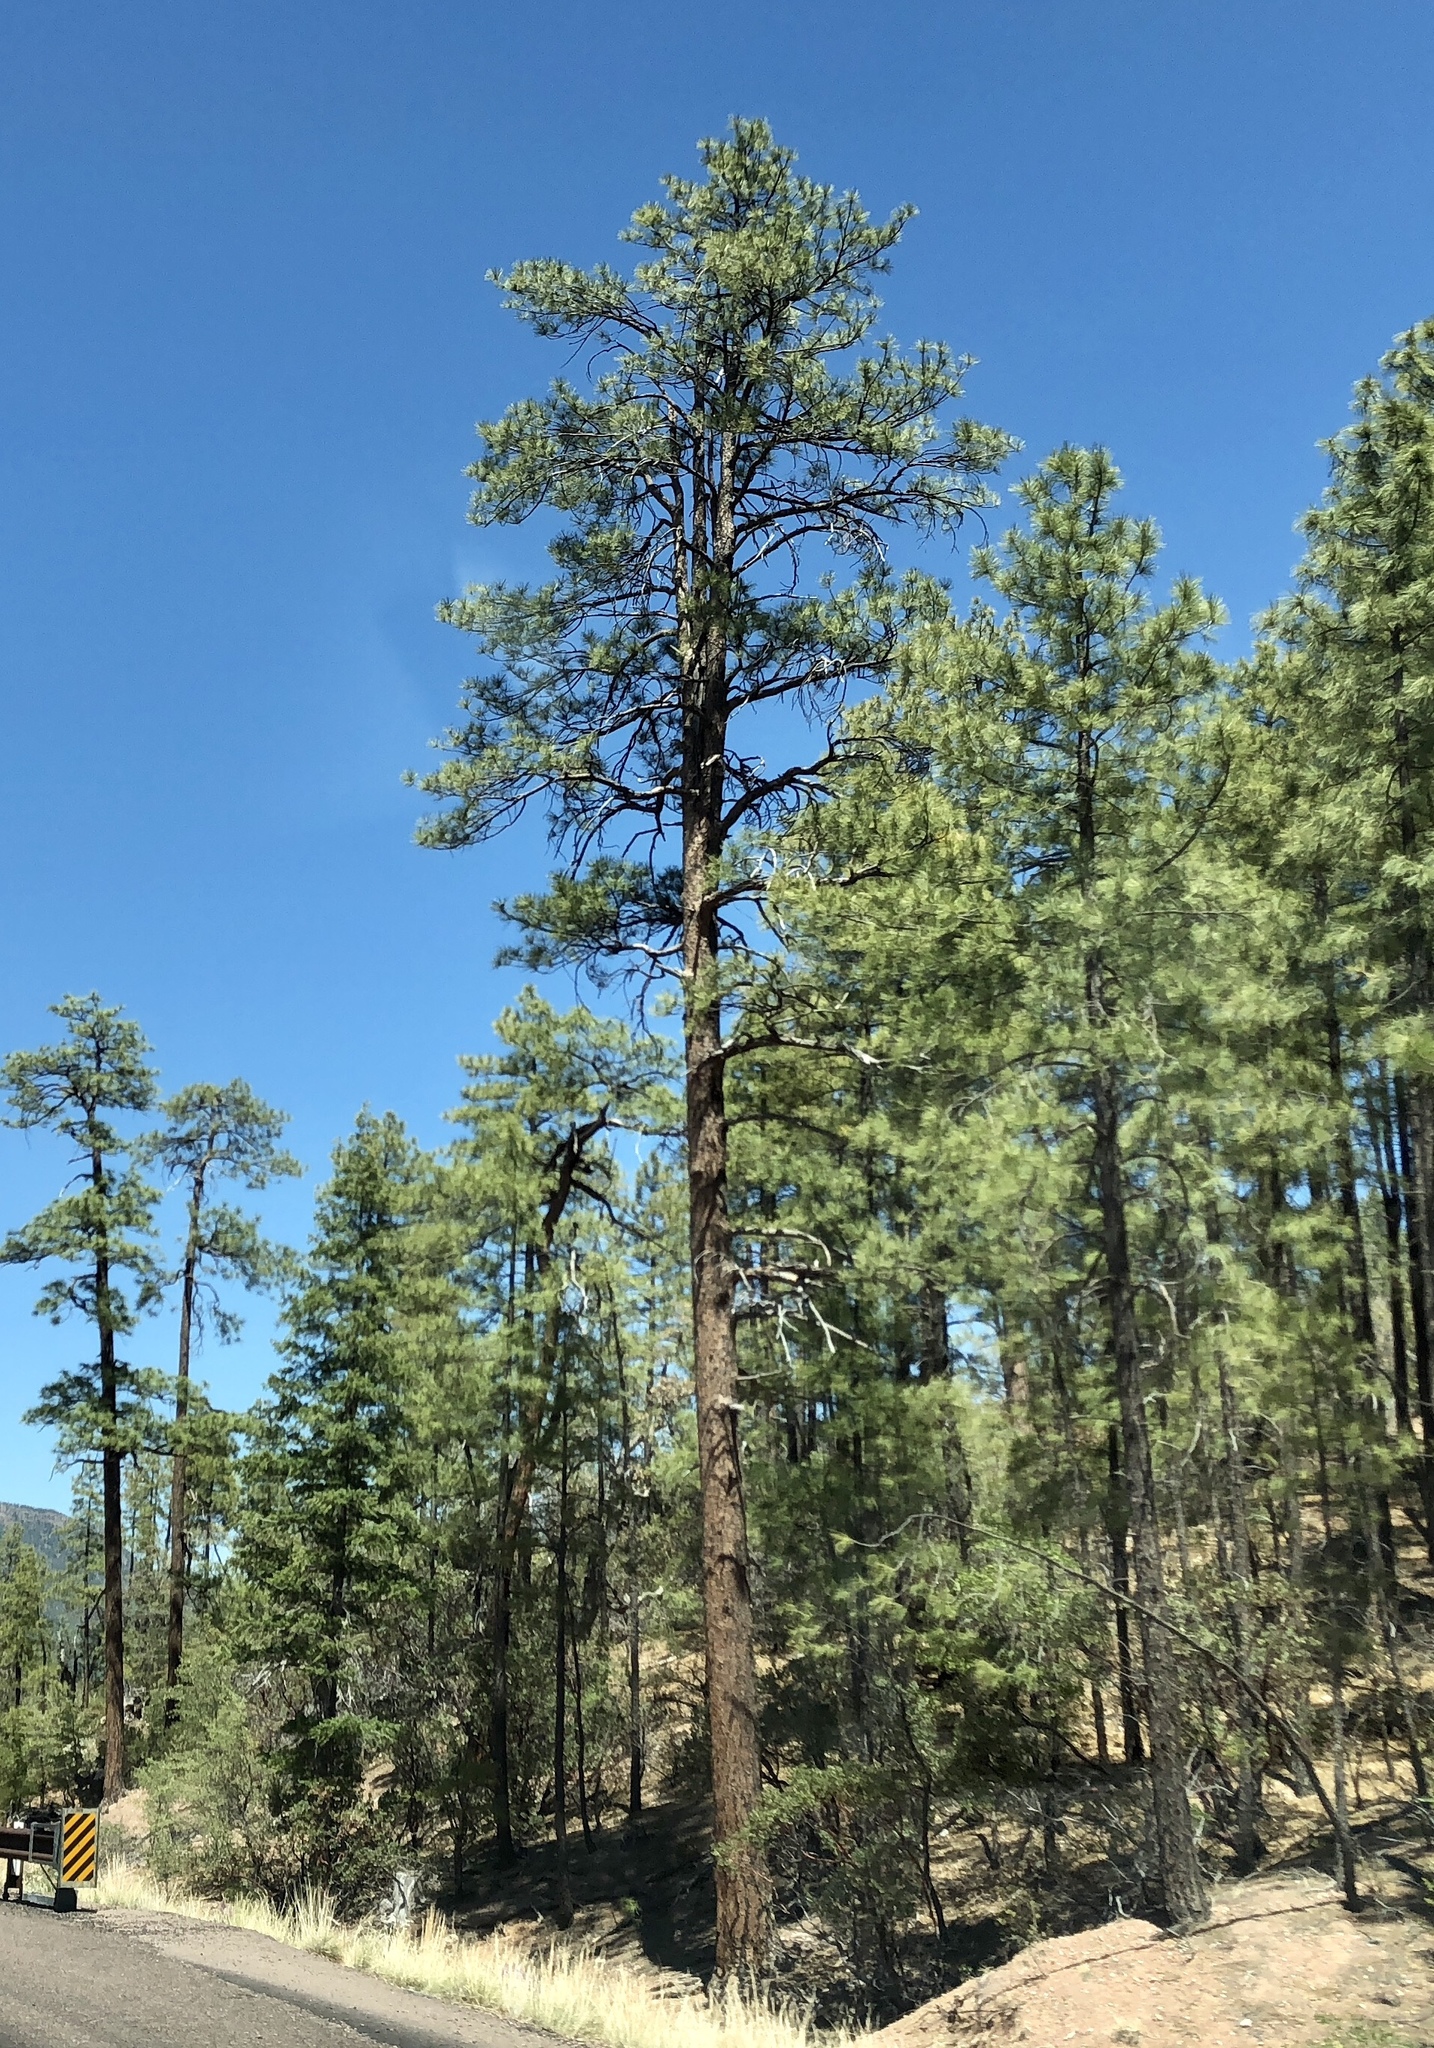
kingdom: Plantae
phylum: Tracheophyta
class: Pinopsida
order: Pinales
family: Pinaceae
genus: Pinus
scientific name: Pinus ponderosa
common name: Western yellow-pine
